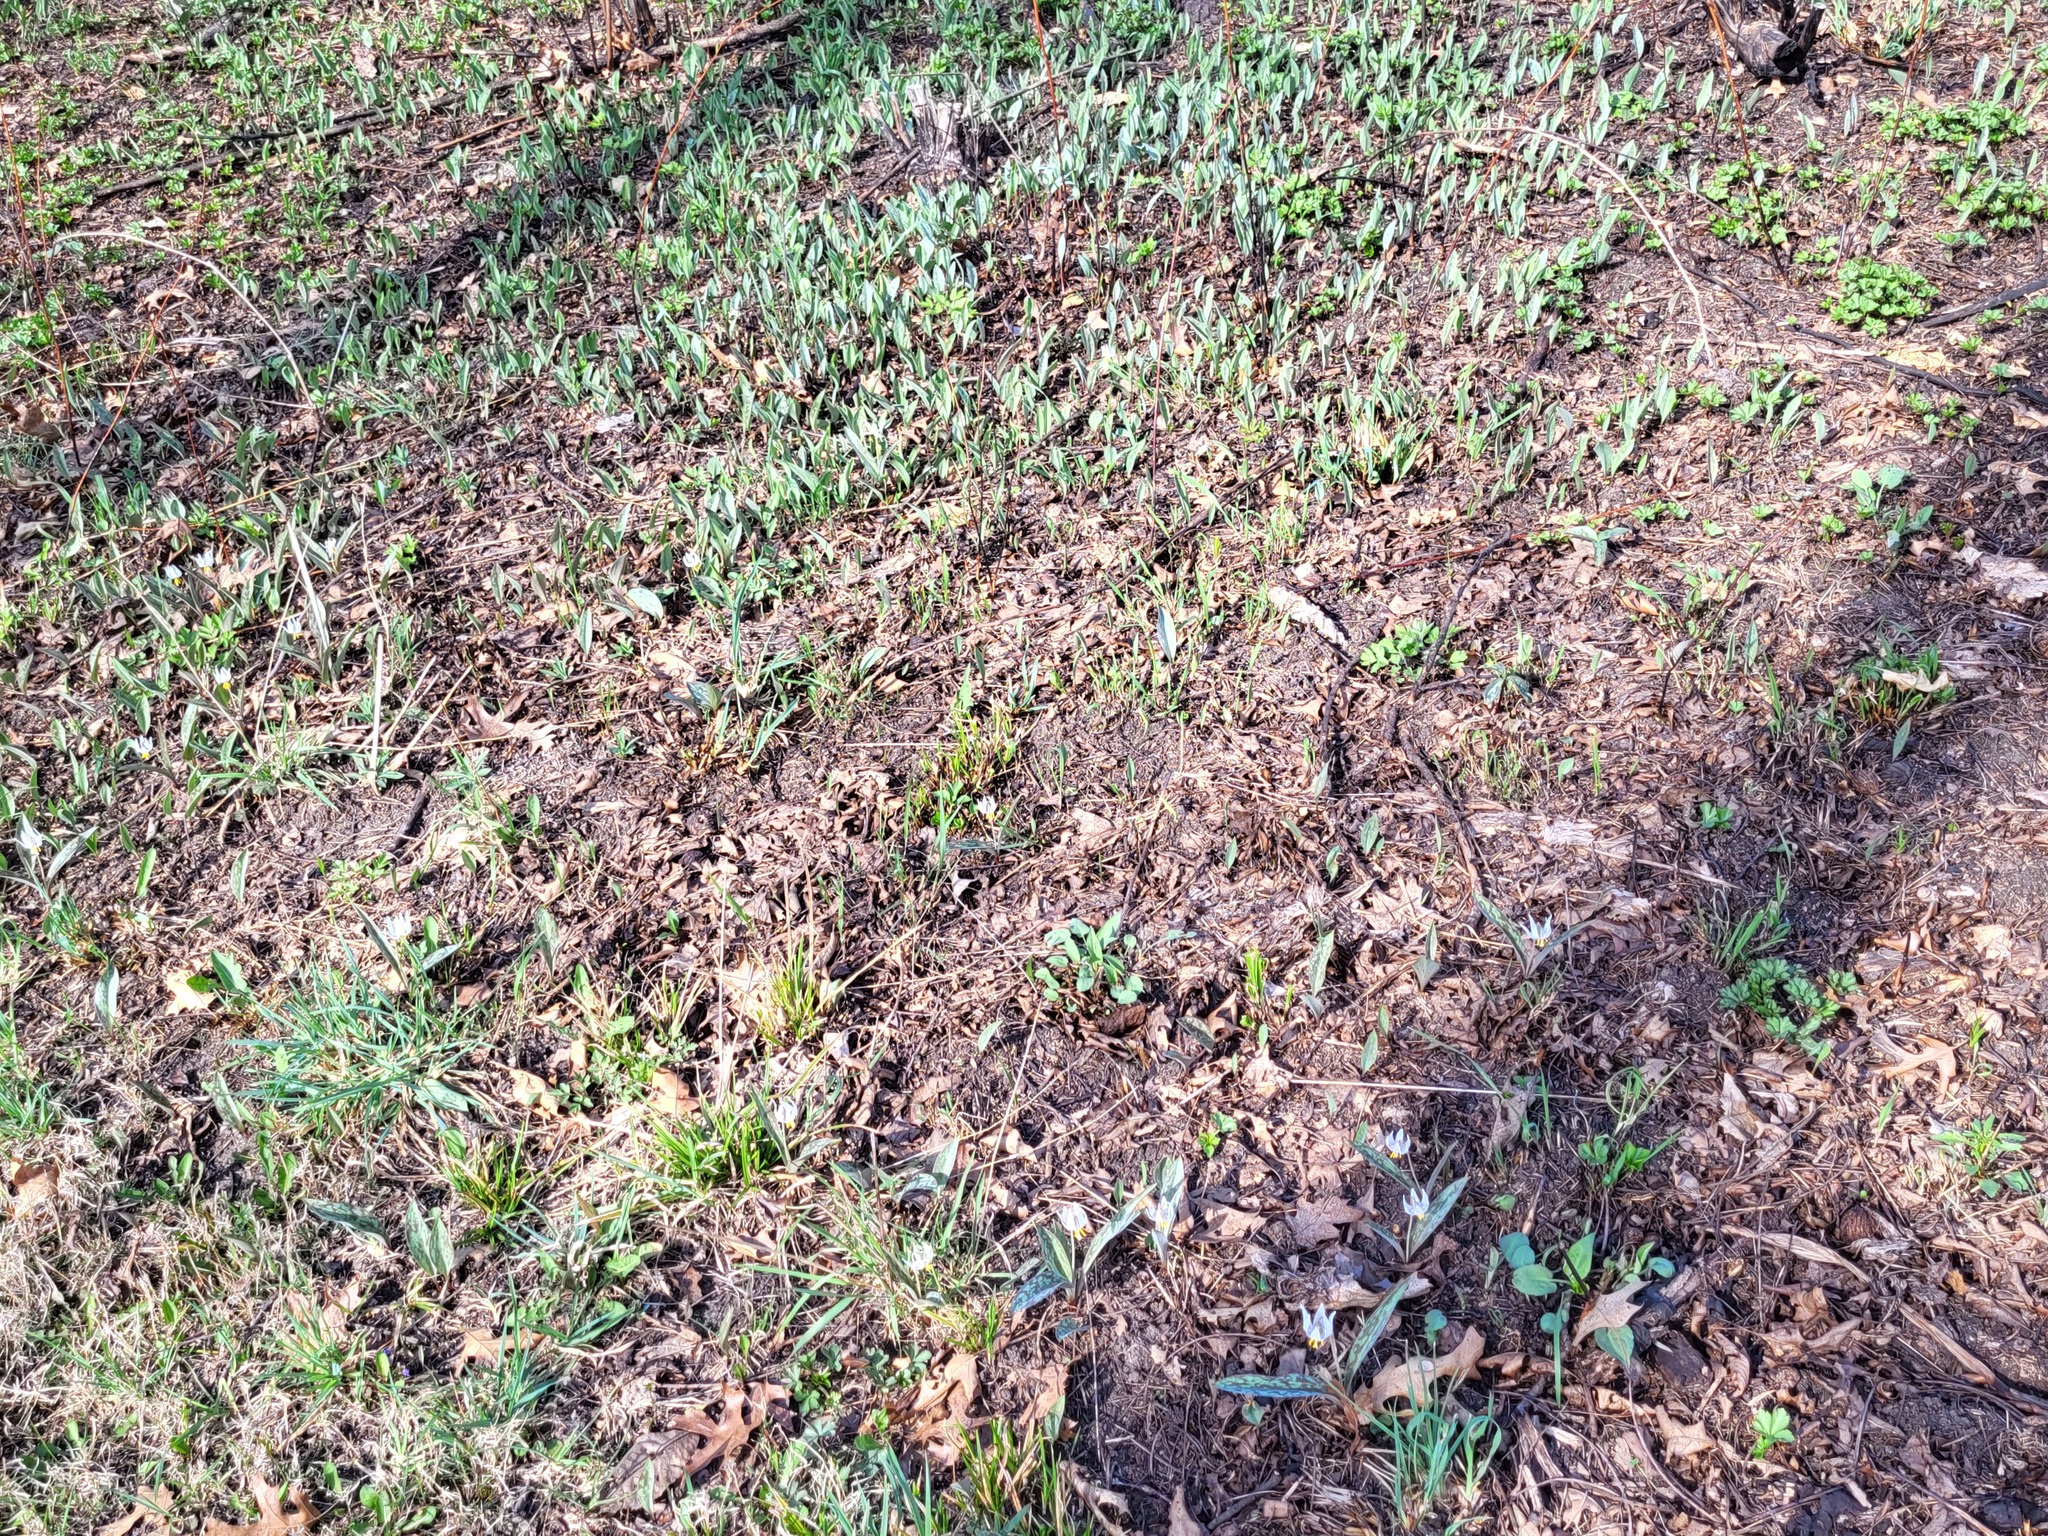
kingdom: Plantae
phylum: Tracheophyta
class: Liliopsida
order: Liliales
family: Liliaceae
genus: Erythronium
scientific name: Erythronium albidum
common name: White trout-lily
